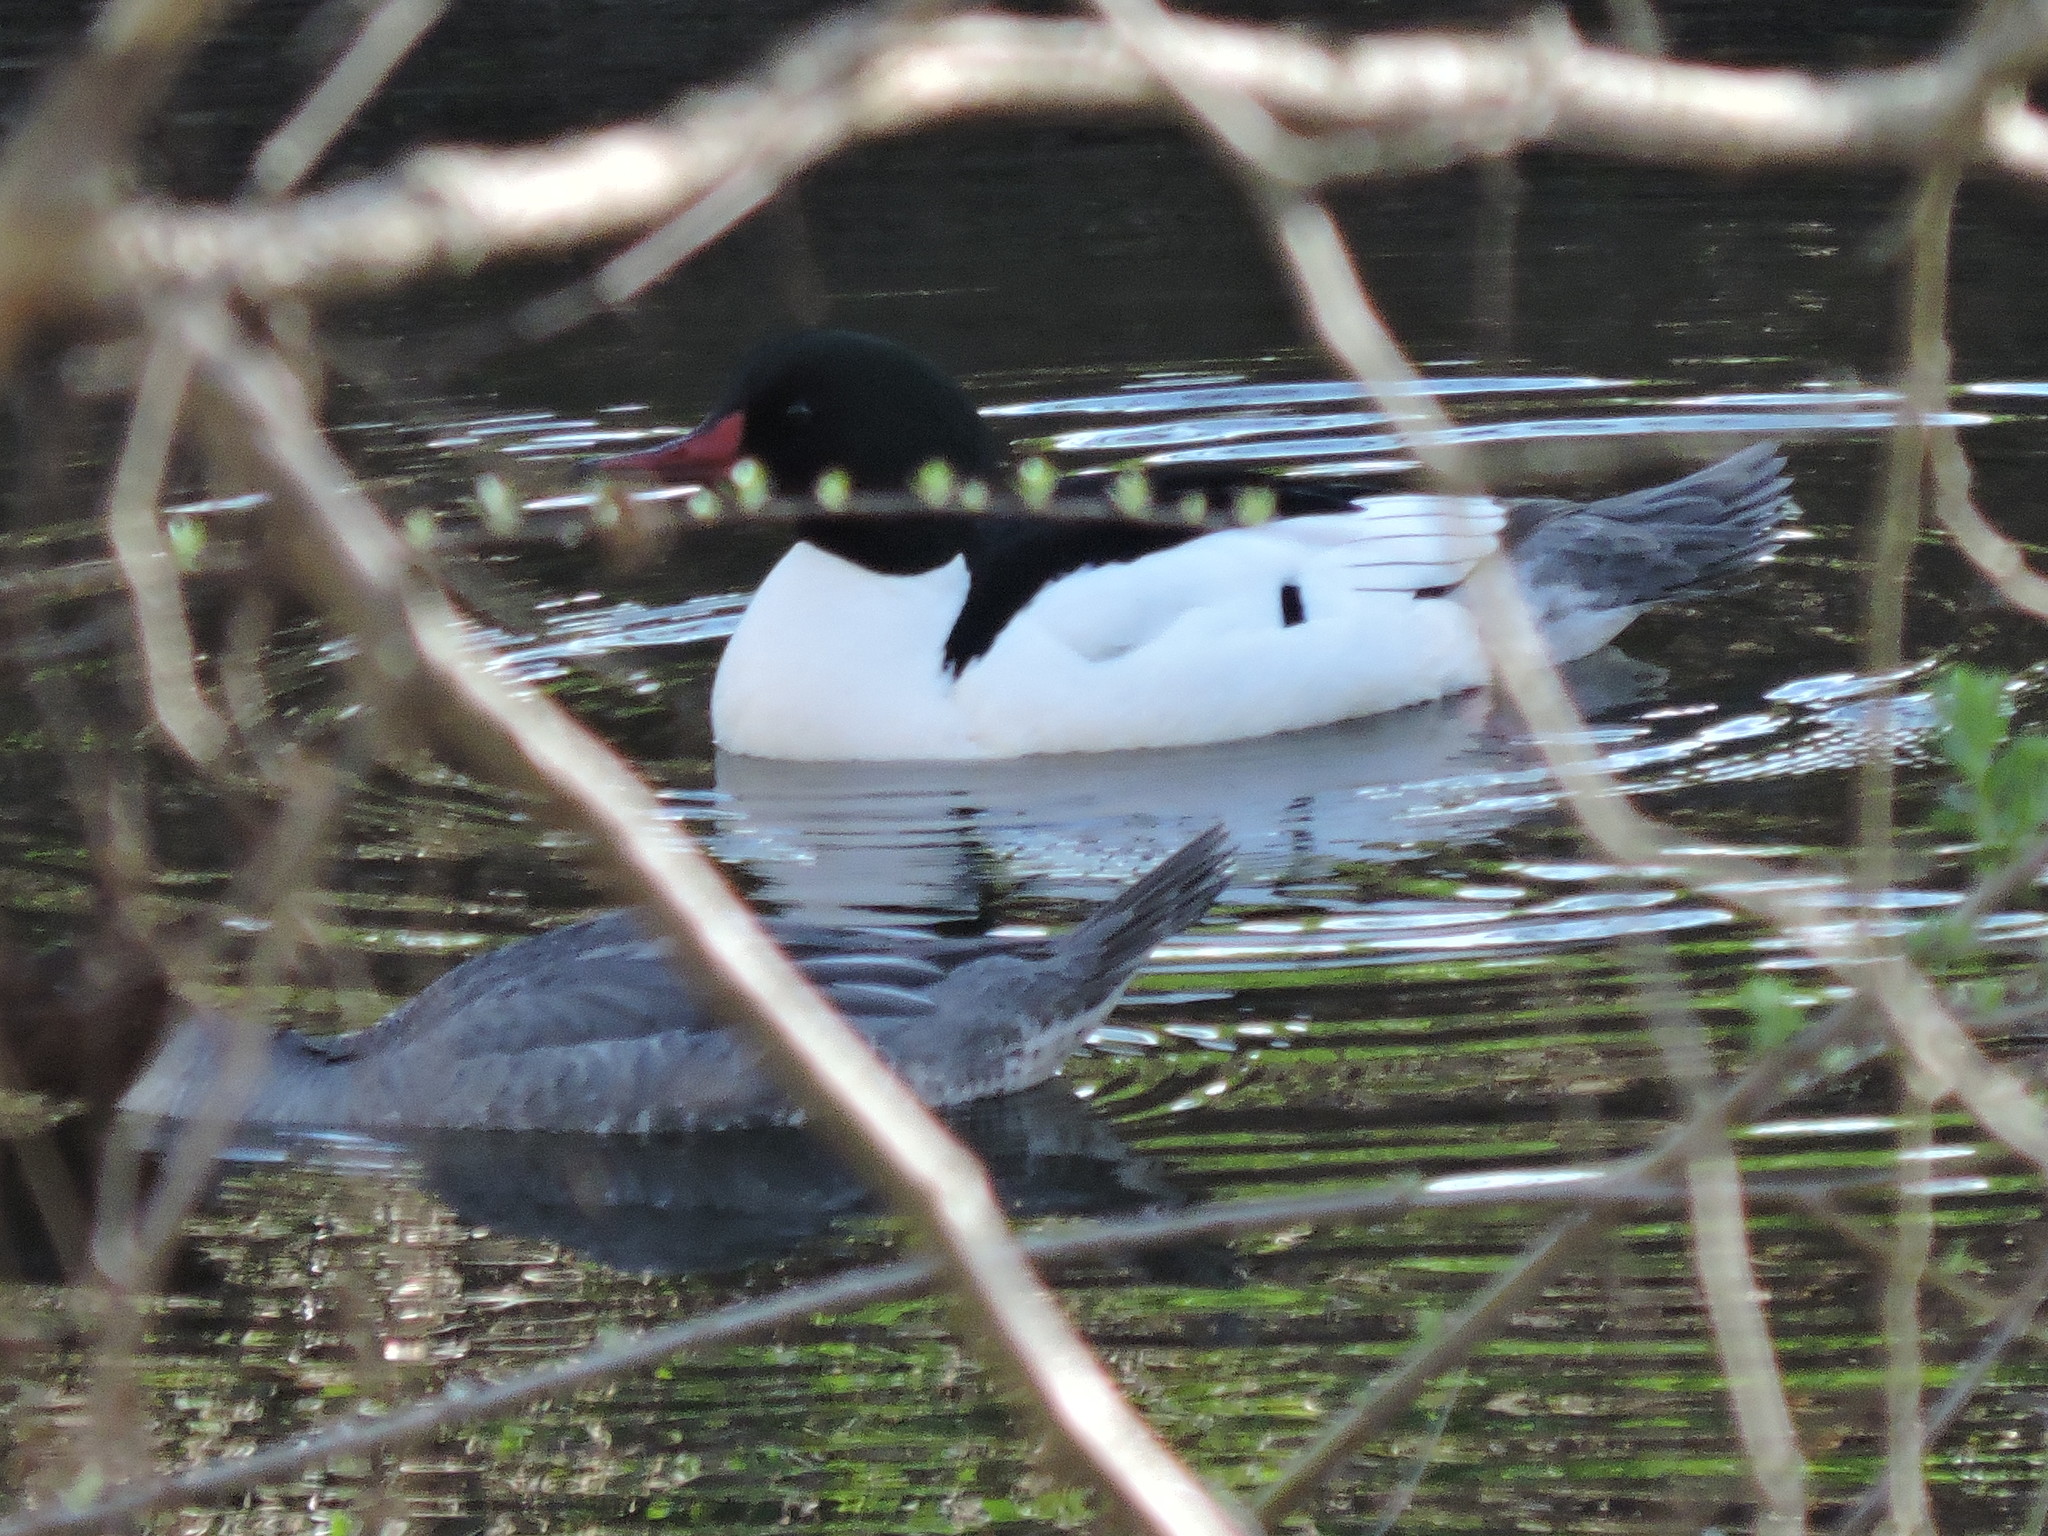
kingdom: Animalia
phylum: Chordata
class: Aves
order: Anseriformes
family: Anatidae
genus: Mergus
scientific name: Mergus merganser
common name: Common merganser
